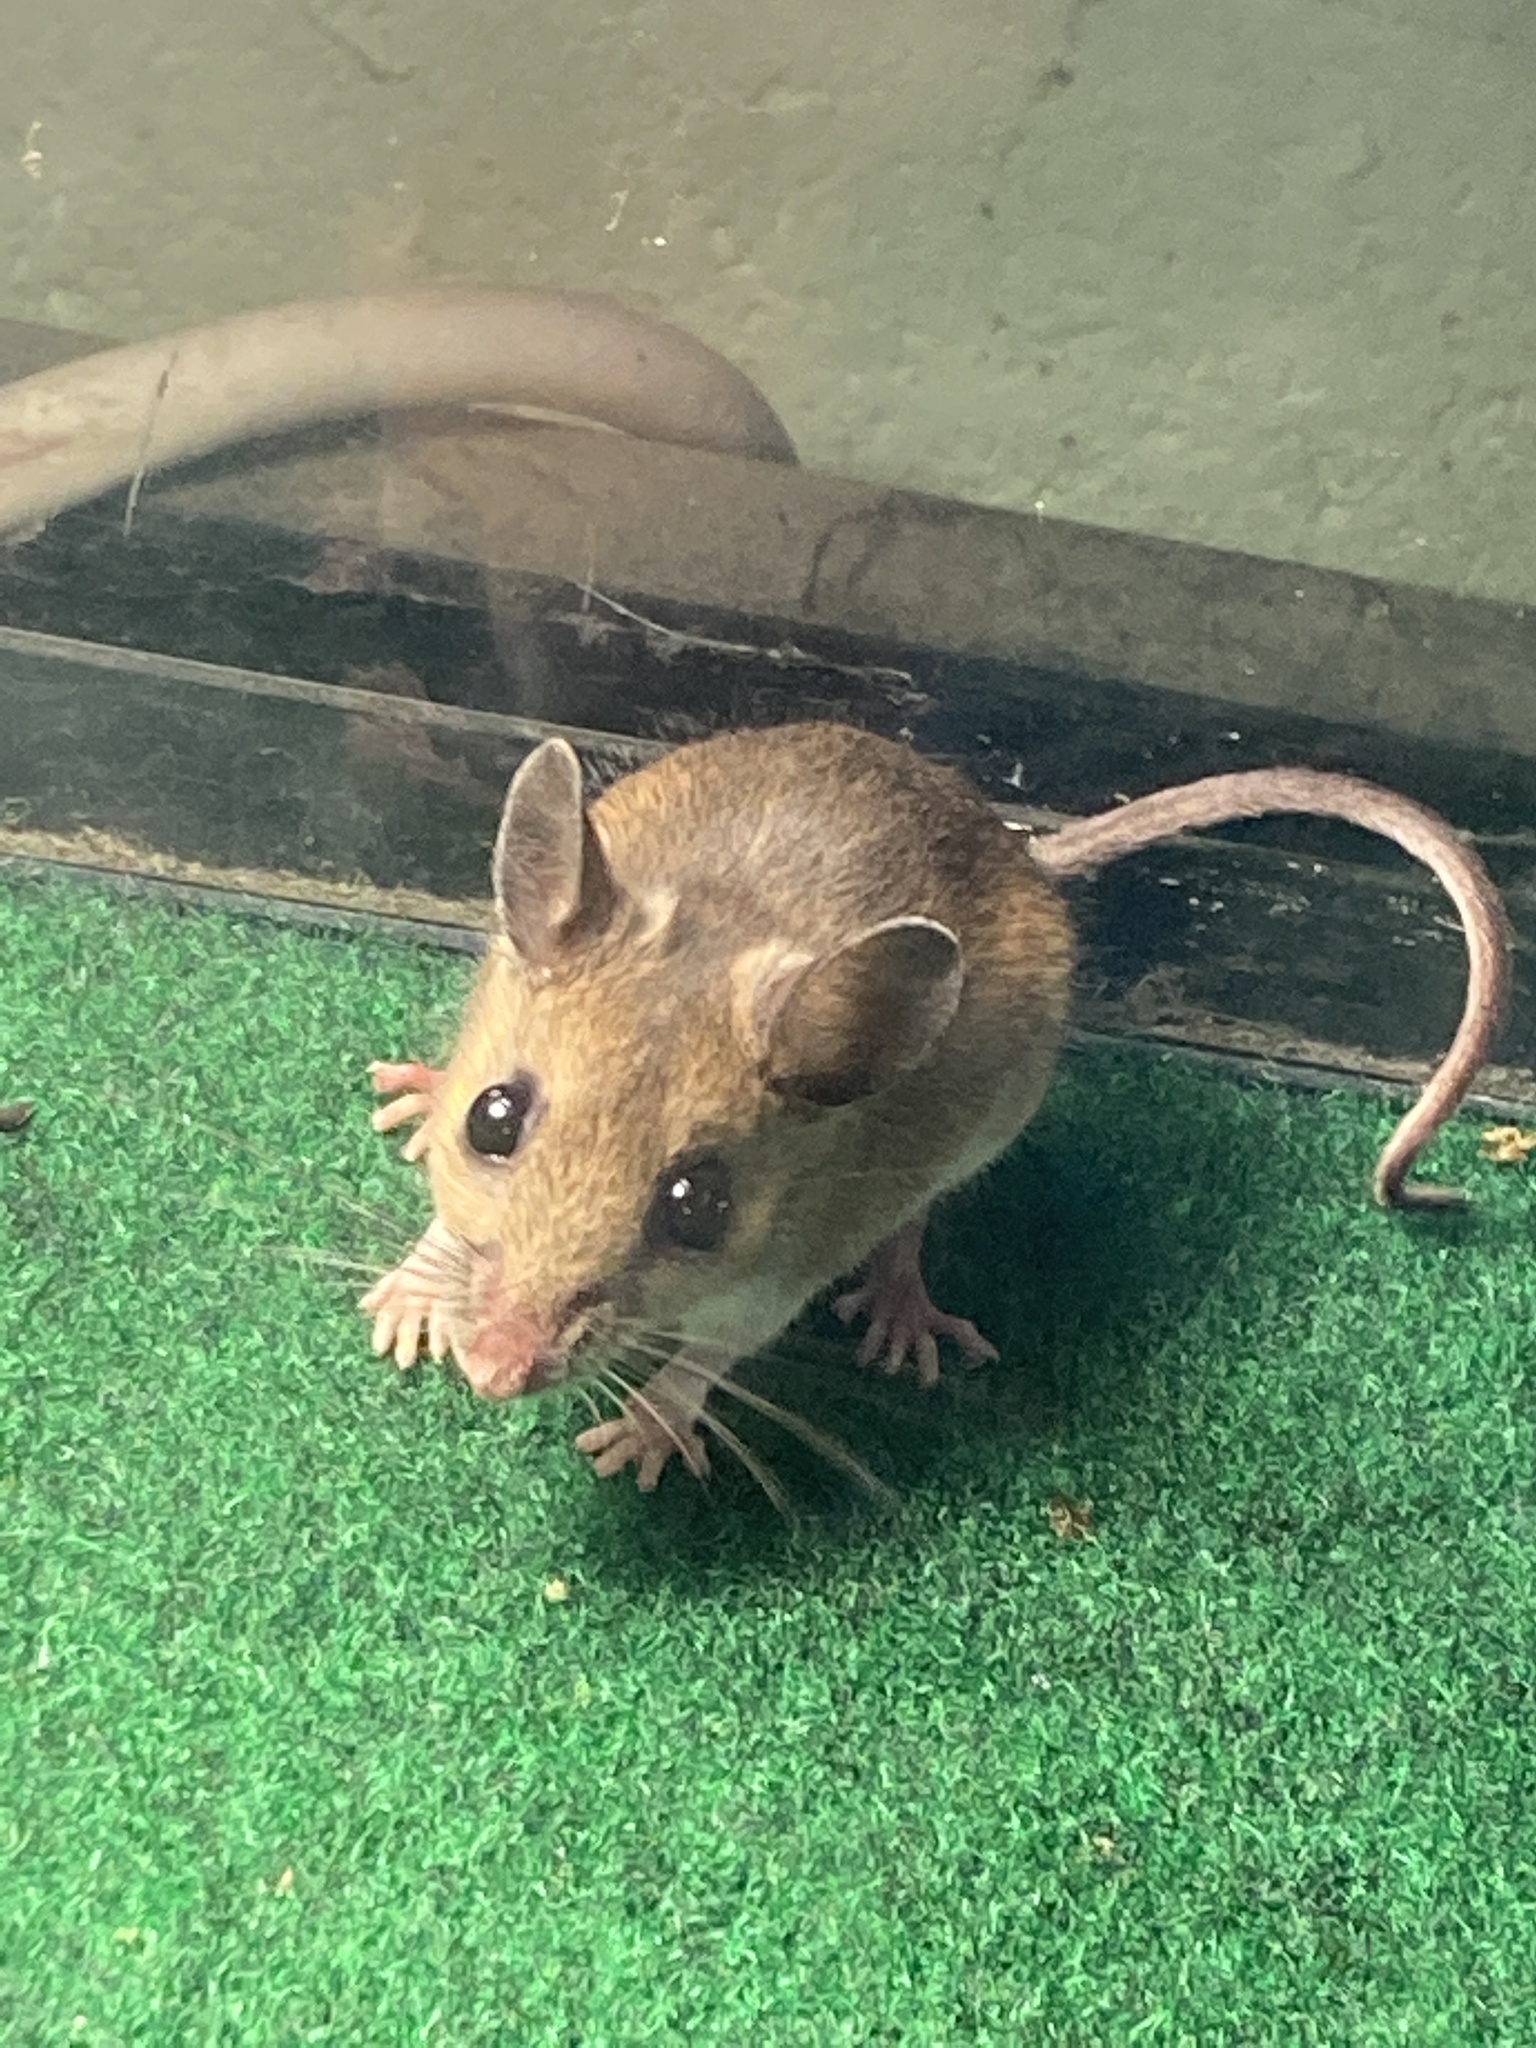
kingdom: Animalia
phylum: Chordata
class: Mammalia
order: Rodentia
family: Cricetidae
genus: Peromyscus
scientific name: Peromyscus leucopus
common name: White-footed deermouse
